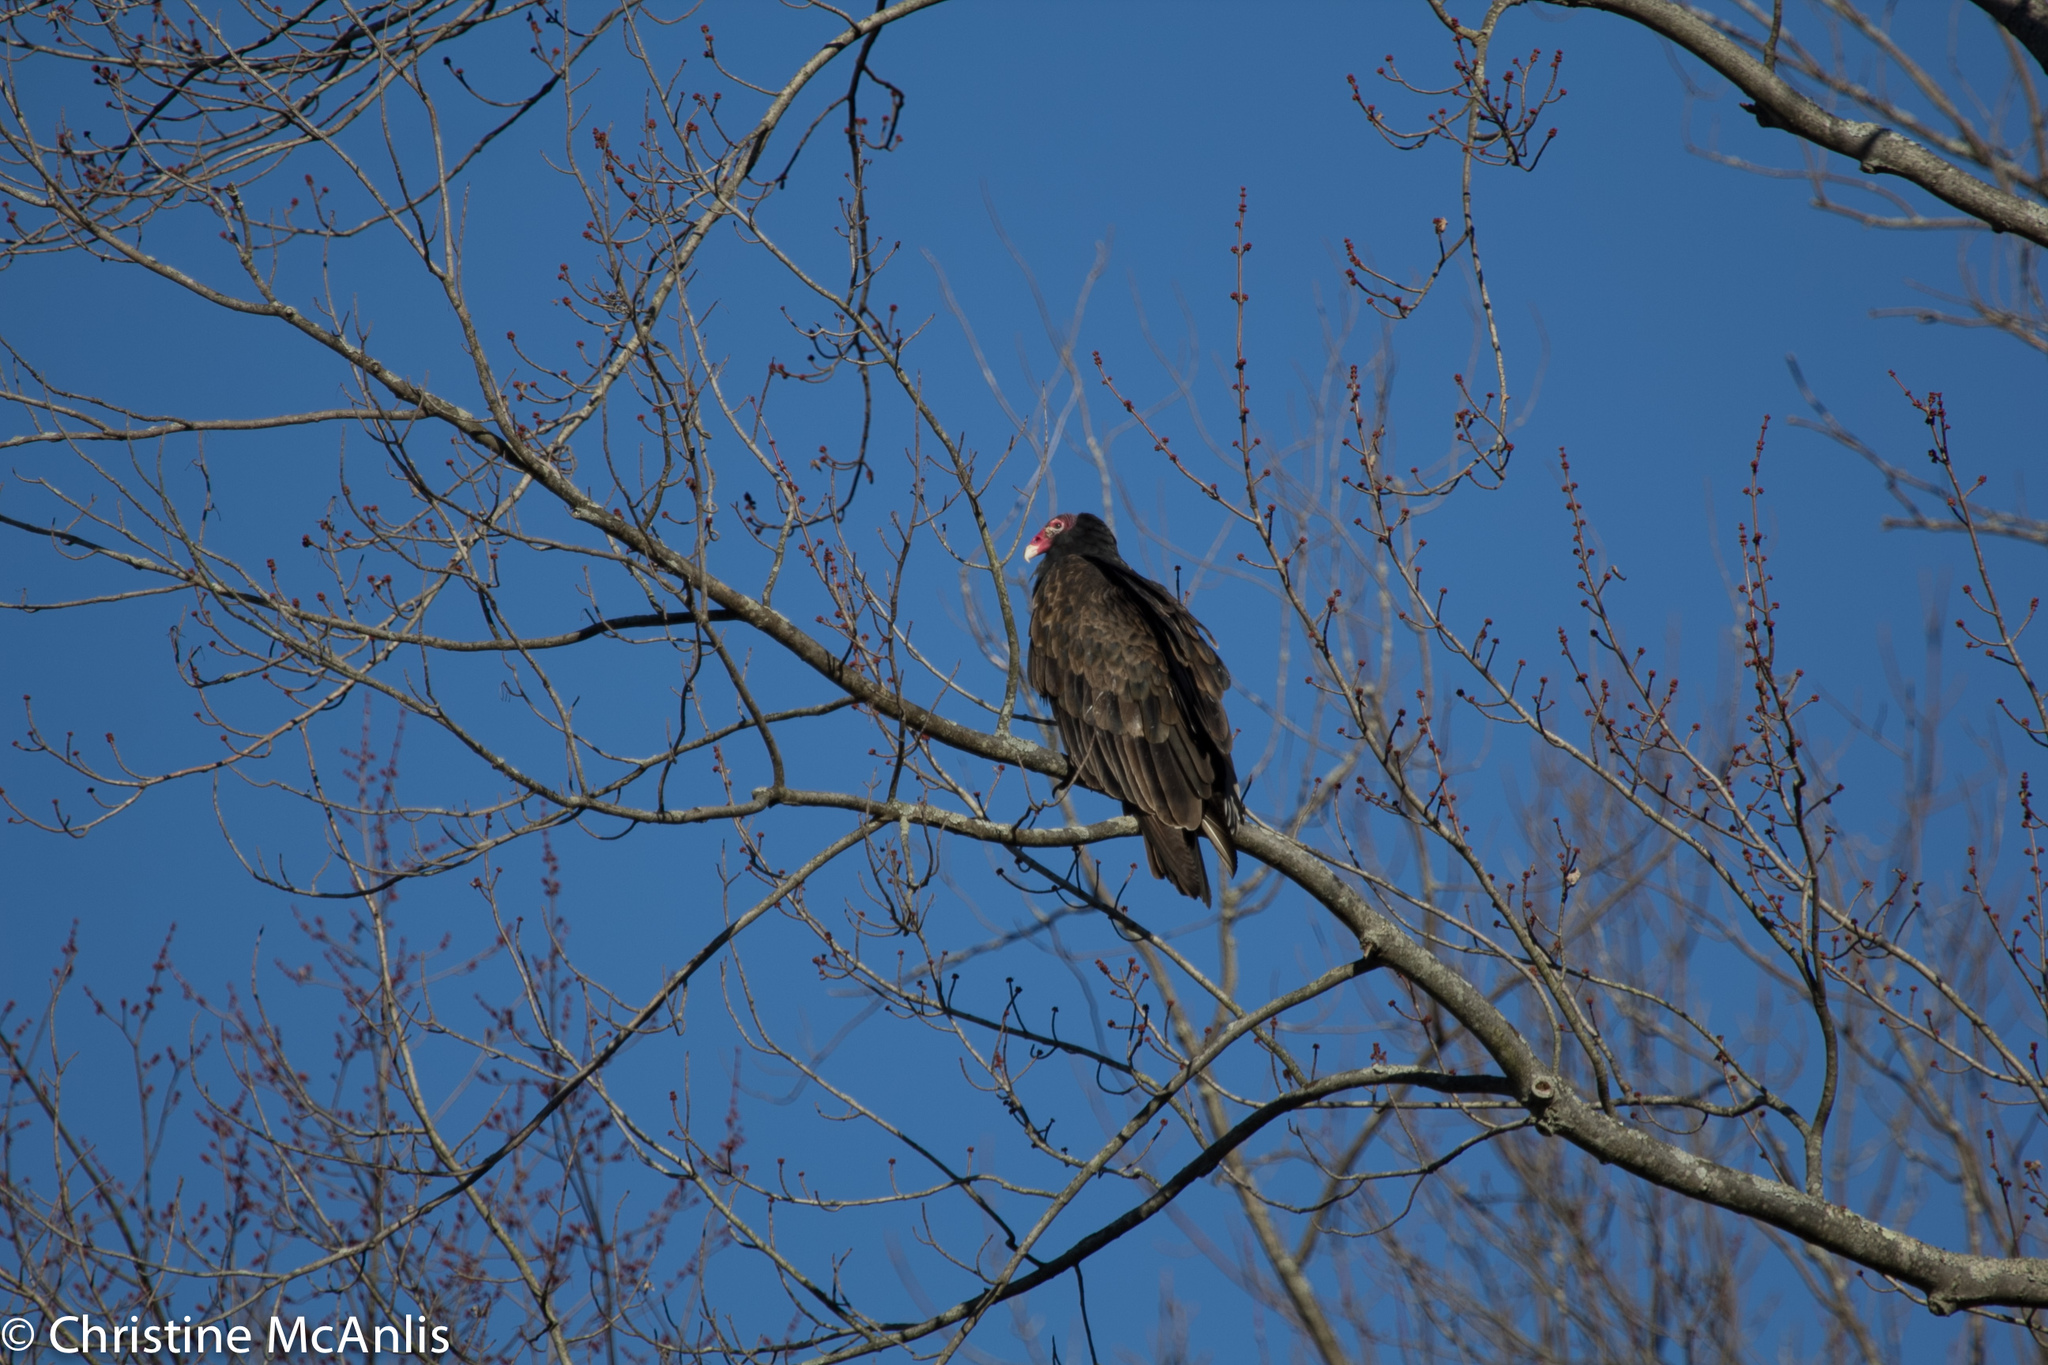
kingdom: Animalia
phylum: Chordata
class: Aves
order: Accipitriformes
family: Cathartidae
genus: Cathartes
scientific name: Cathartes aura
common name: Turkey vulture
